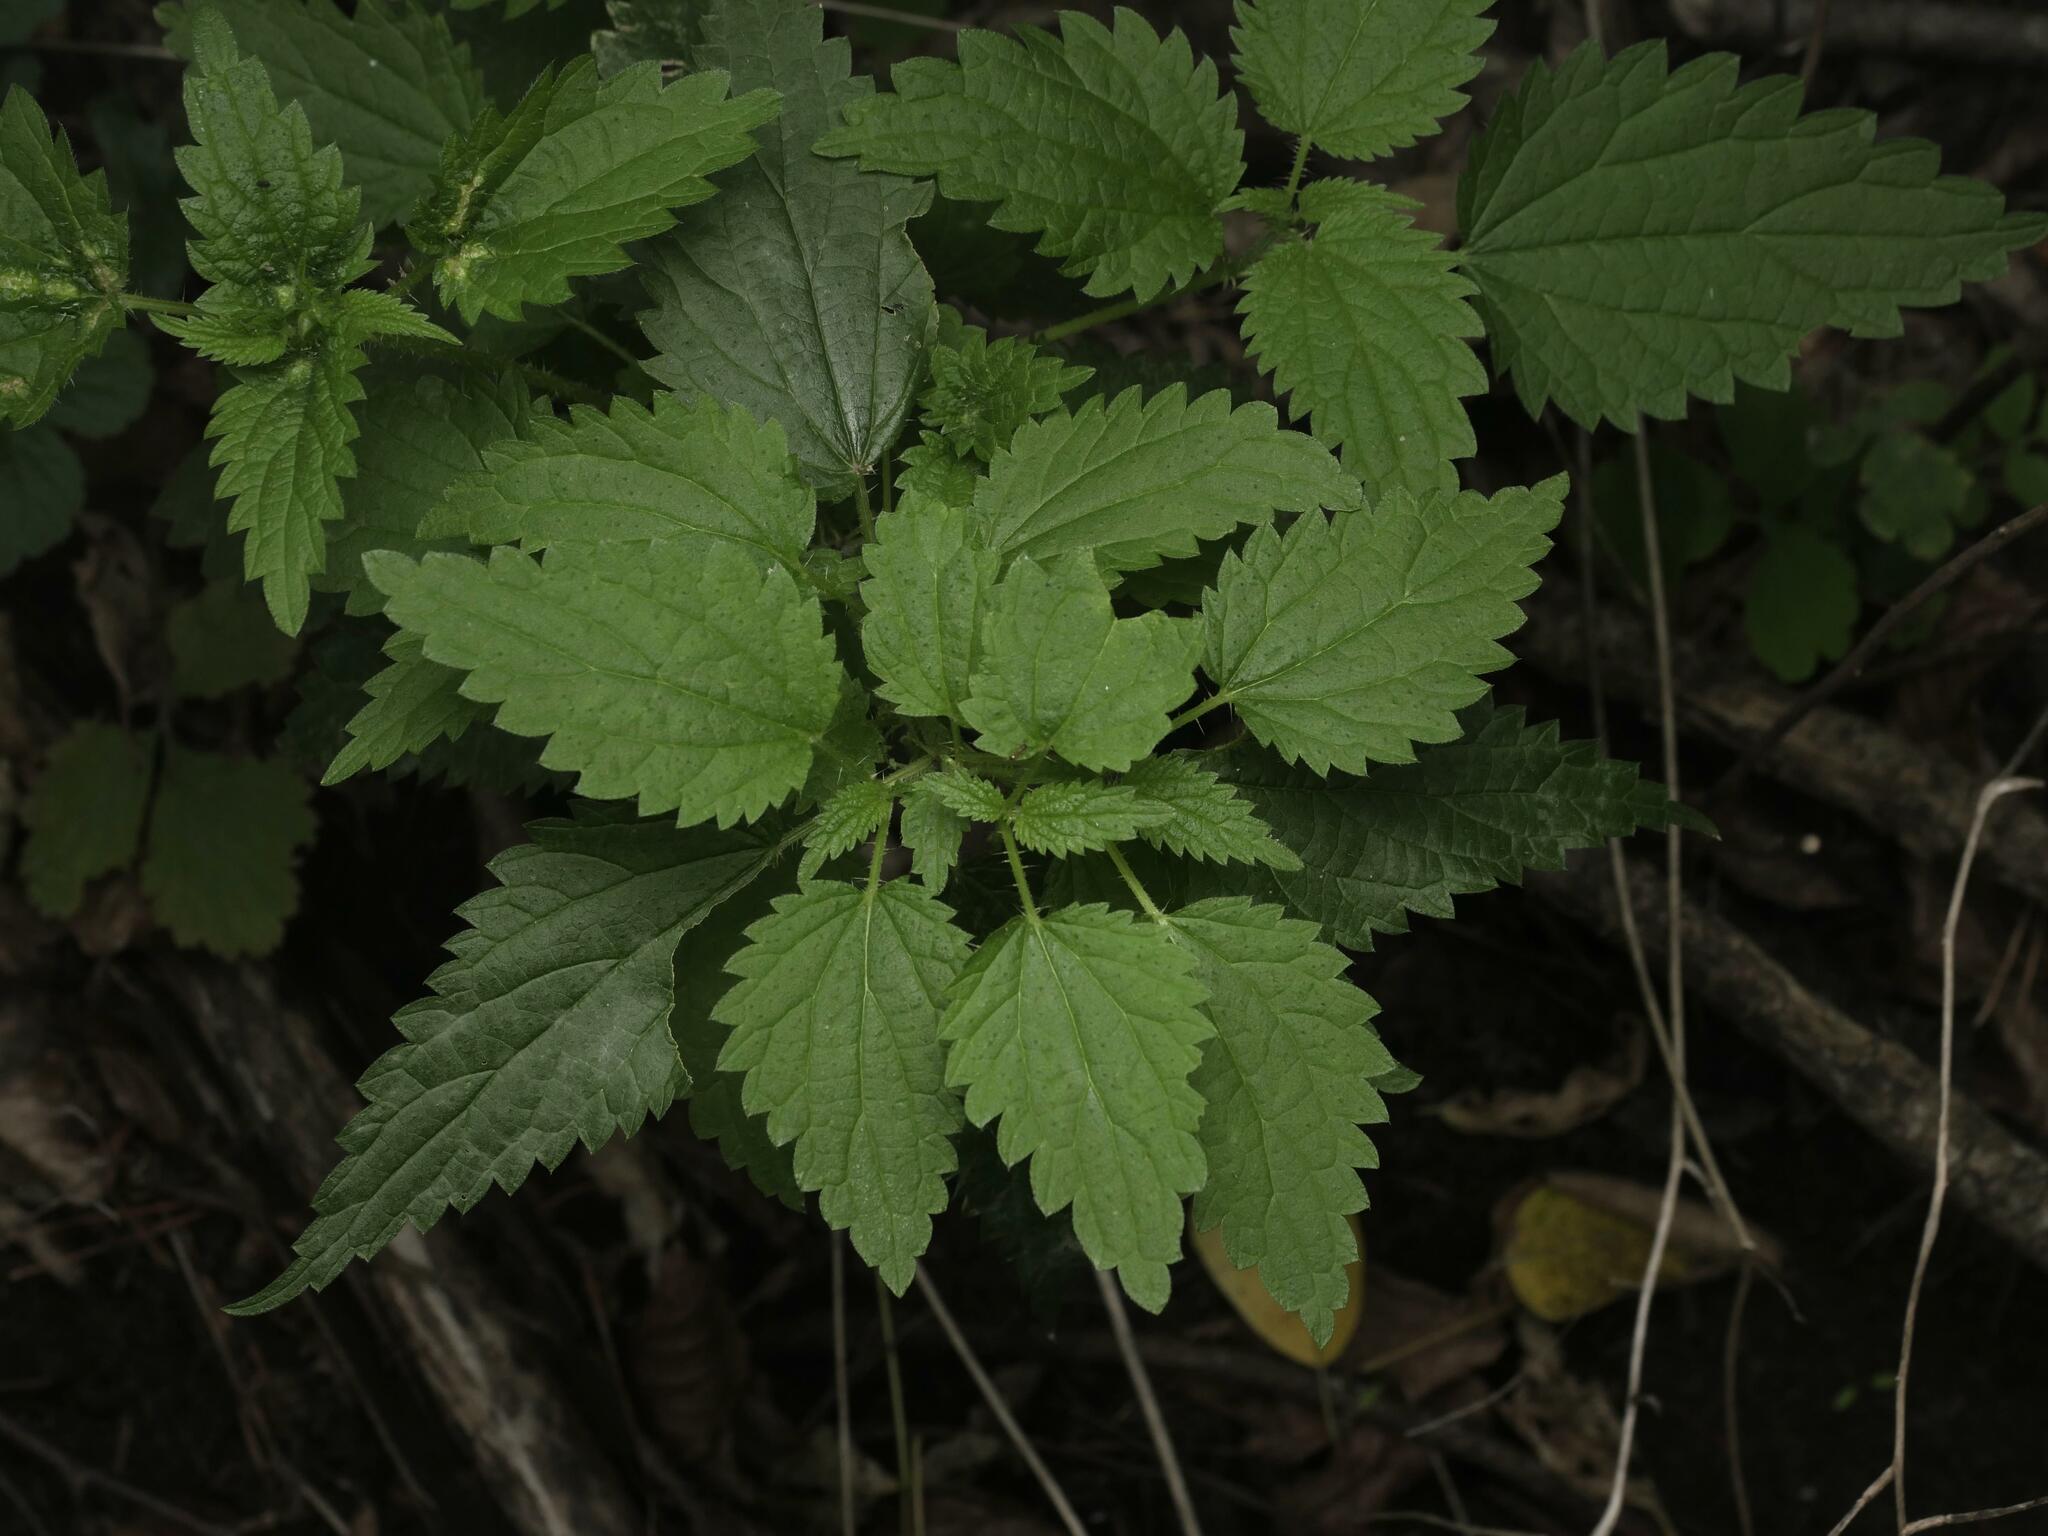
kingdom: Plantae
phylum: Tracheophyta
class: Magnoliopsida
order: Rosales
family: Urticaceae
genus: Urtica
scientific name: Urtica dioica
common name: Common nettle
